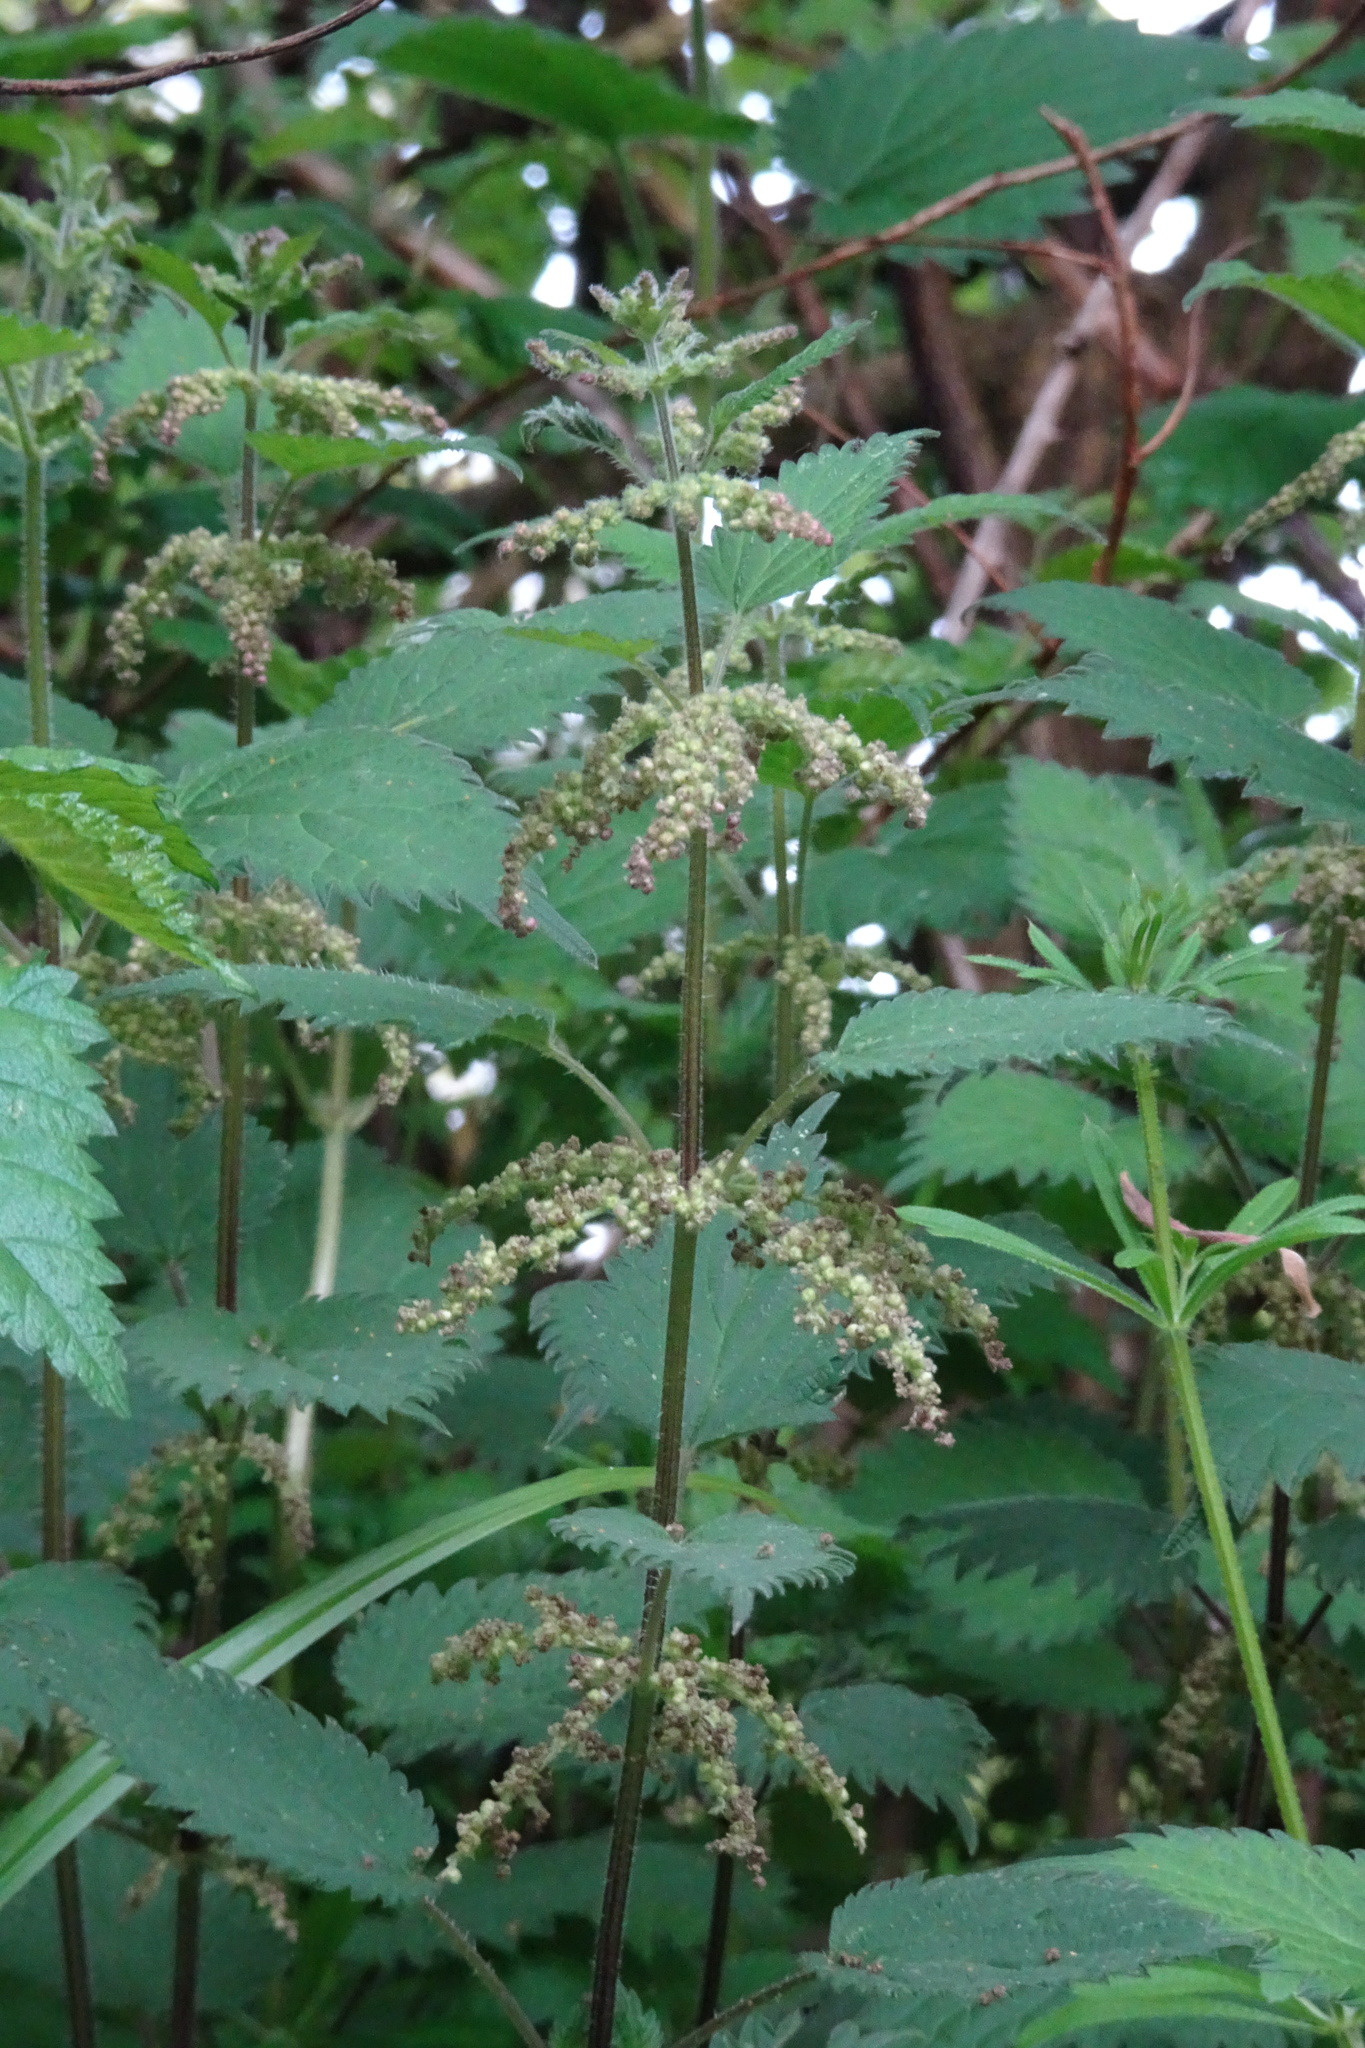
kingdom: Plantae
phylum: Tracheophyta
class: Magnoliopsida
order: Rosales
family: Urticaceae
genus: Urtica
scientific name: Urtica dioica
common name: Common nettle
